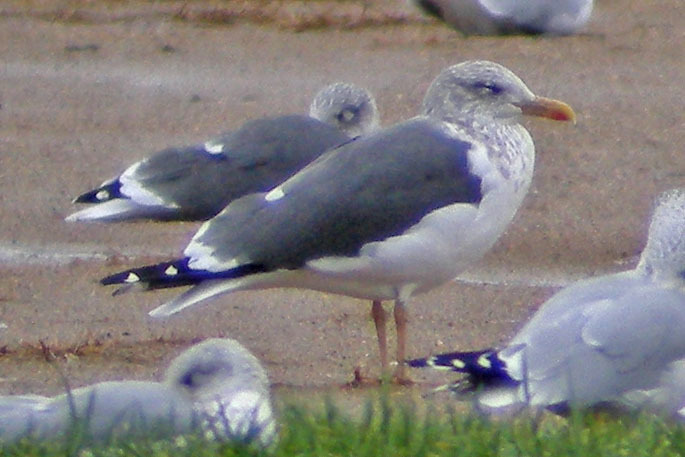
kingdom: Animalia
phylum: Chordata
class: Aves
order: Charadriiformes
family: Laridae
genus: Larus
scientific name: Larus fuscus
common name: Lesser black-backed gull
